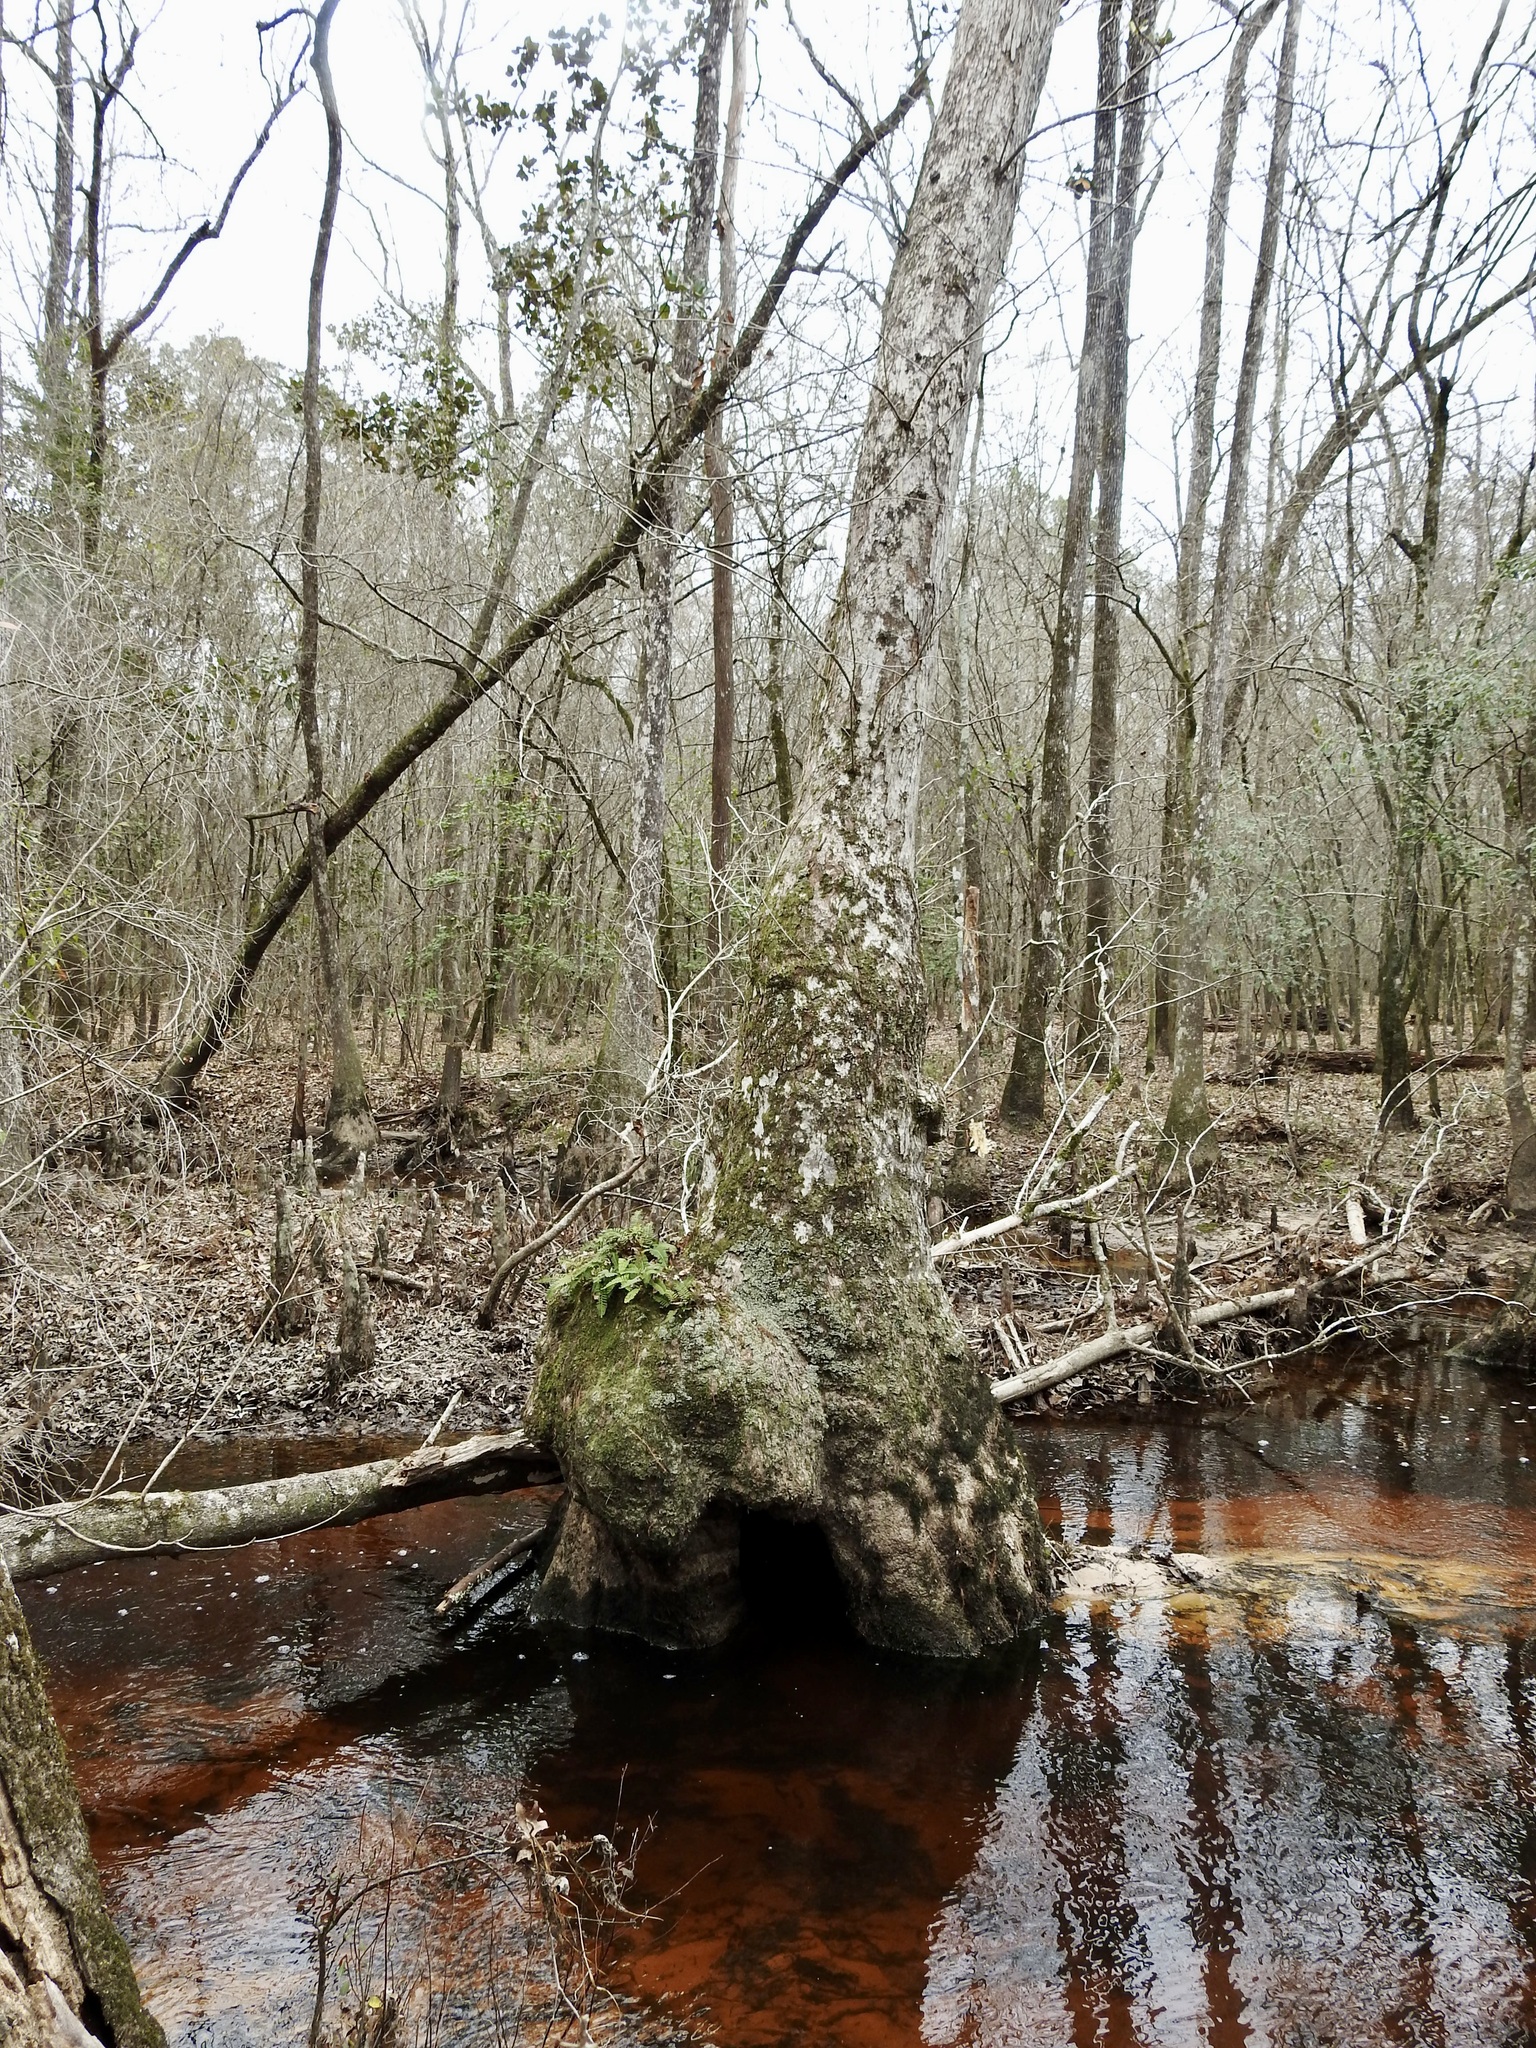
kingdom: Plantae
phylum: Tracheophyta
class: Polypodiopsida
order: Polypodiales
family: Polypodiaceae
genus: Pleopeltis
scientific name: Pleopeltis michauxiana
